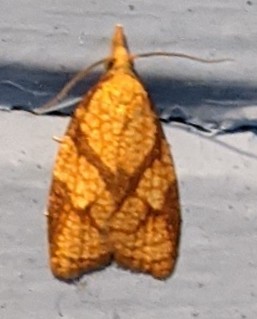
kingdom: Animalia
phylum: Arthropoda
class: Insecta
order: Lepidoptera
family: Tortricidae
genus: Cenopis
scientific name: Cenopis reticulatana
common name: Reticulated fruitworm moth
